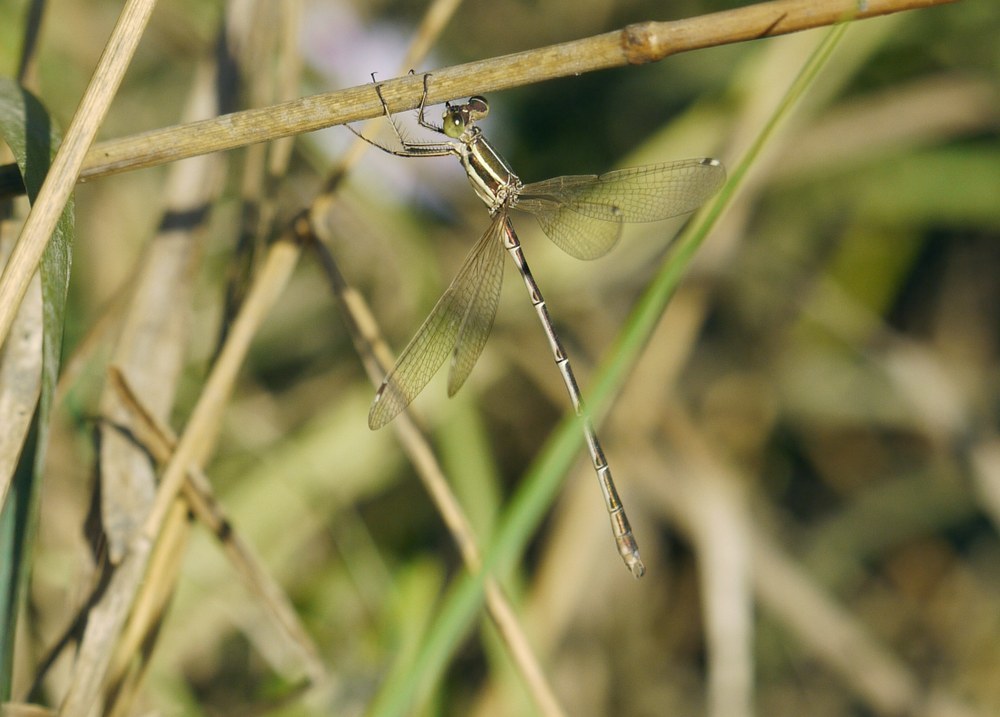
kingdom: Animalia
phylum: Arthropoda
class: Insecta
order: Odonata
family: Lestidae
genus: Lestes
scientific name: Lestes barbarus
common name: Migrant spreadwing
